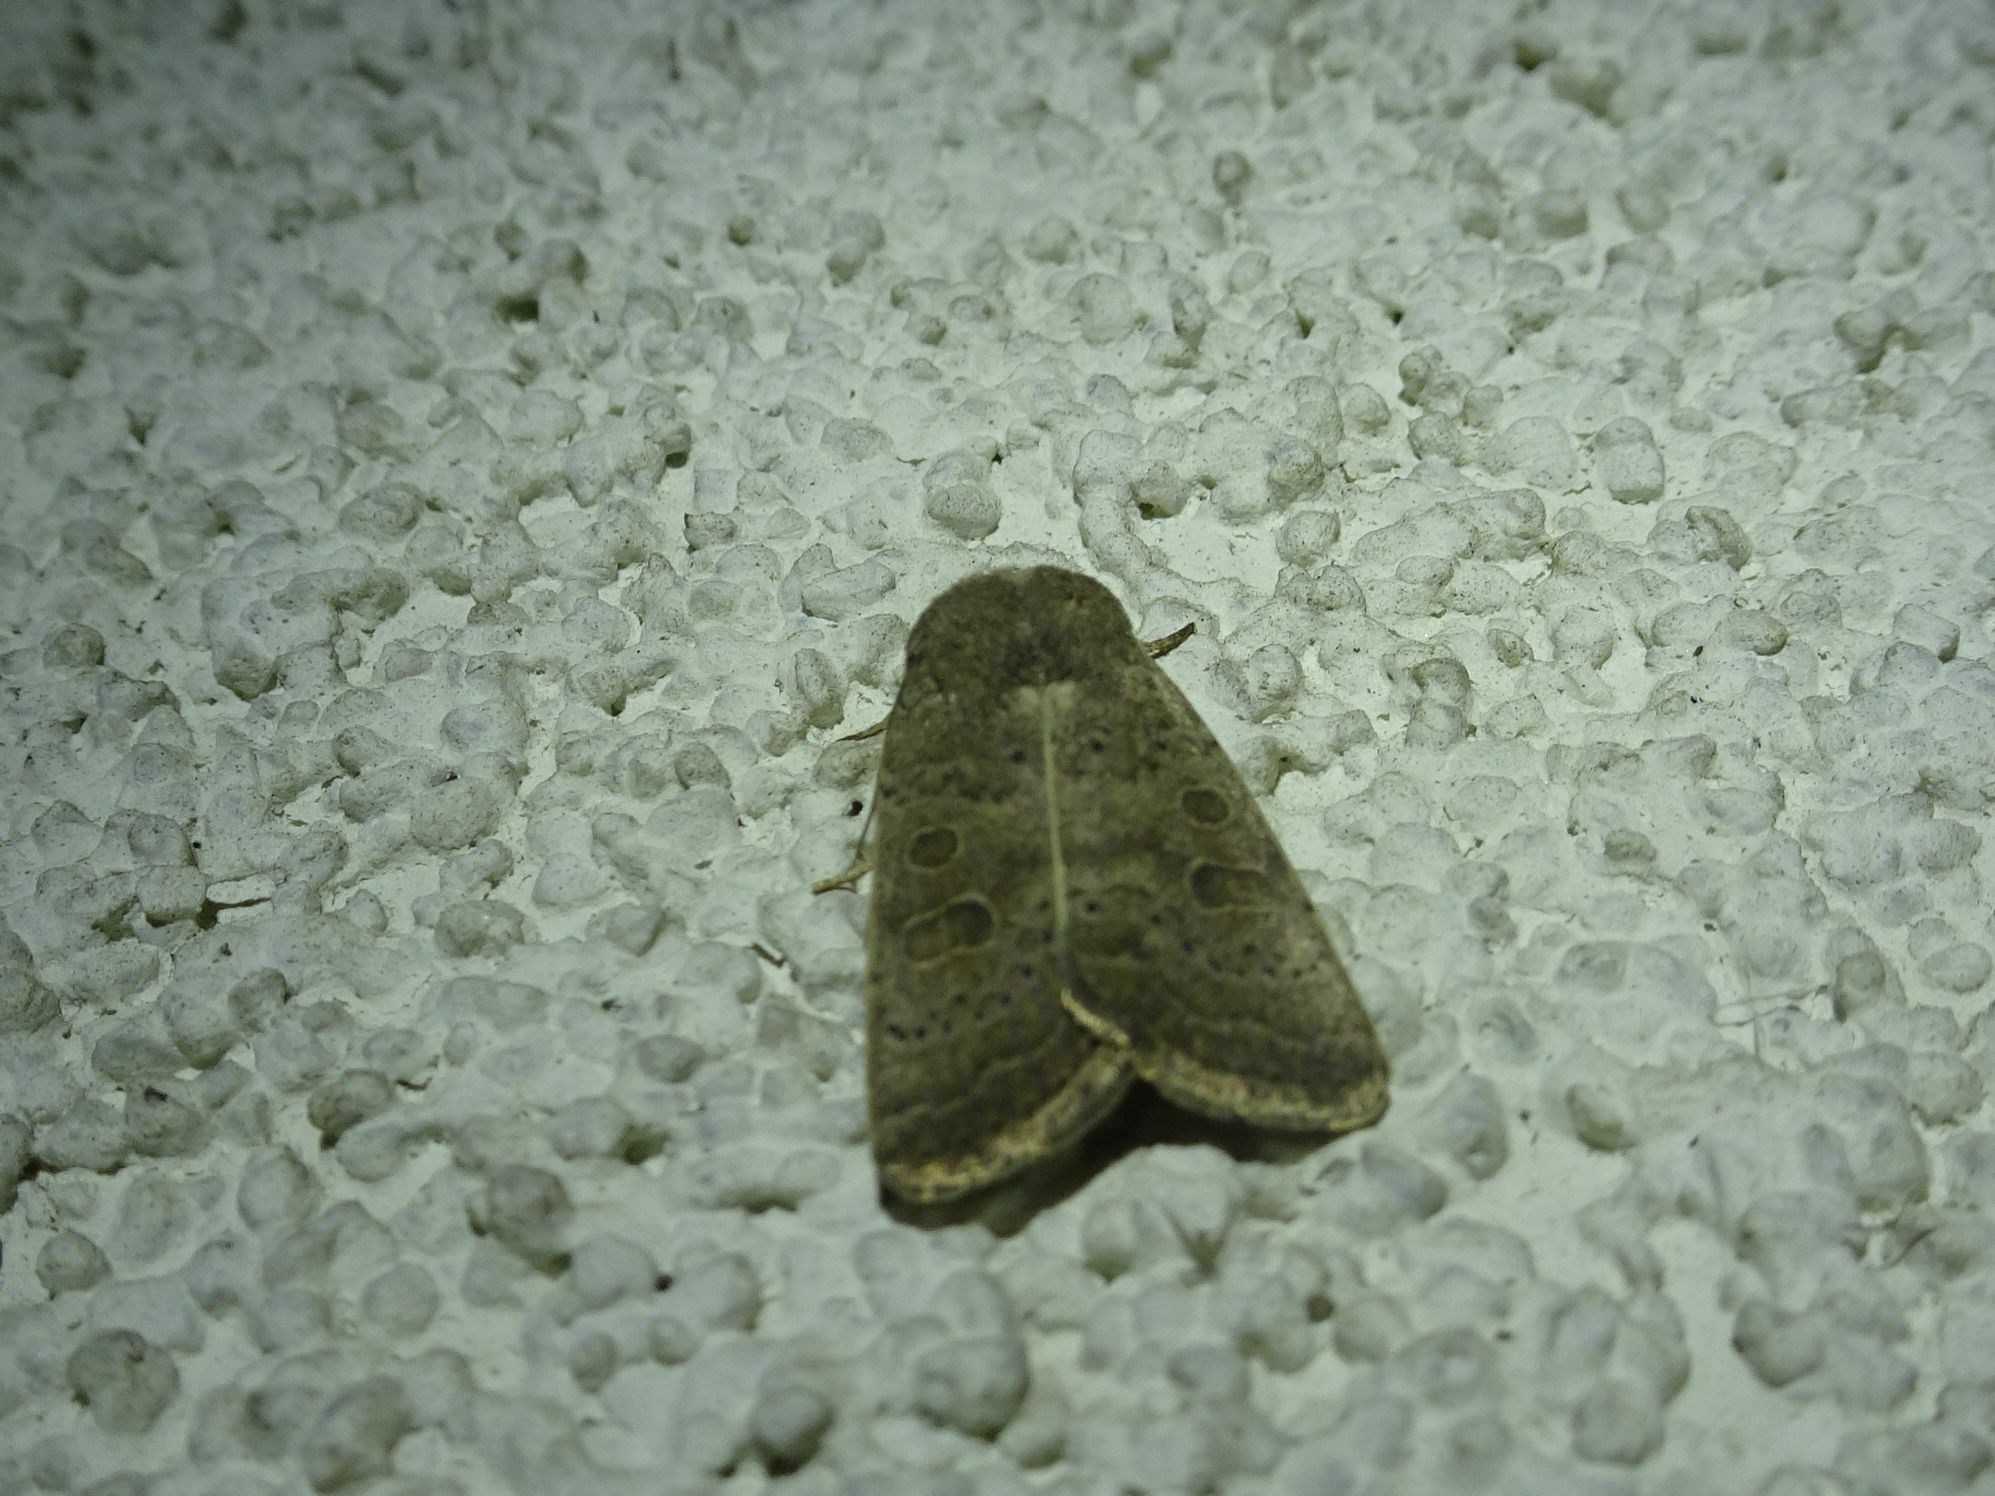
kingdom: Animalia
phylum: Arthropoda
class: Insecta
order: Lepidoptera
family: Noctuidae
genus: Hoplodrina
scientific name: Hoplodrina ambigua
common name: Vine's rustic
